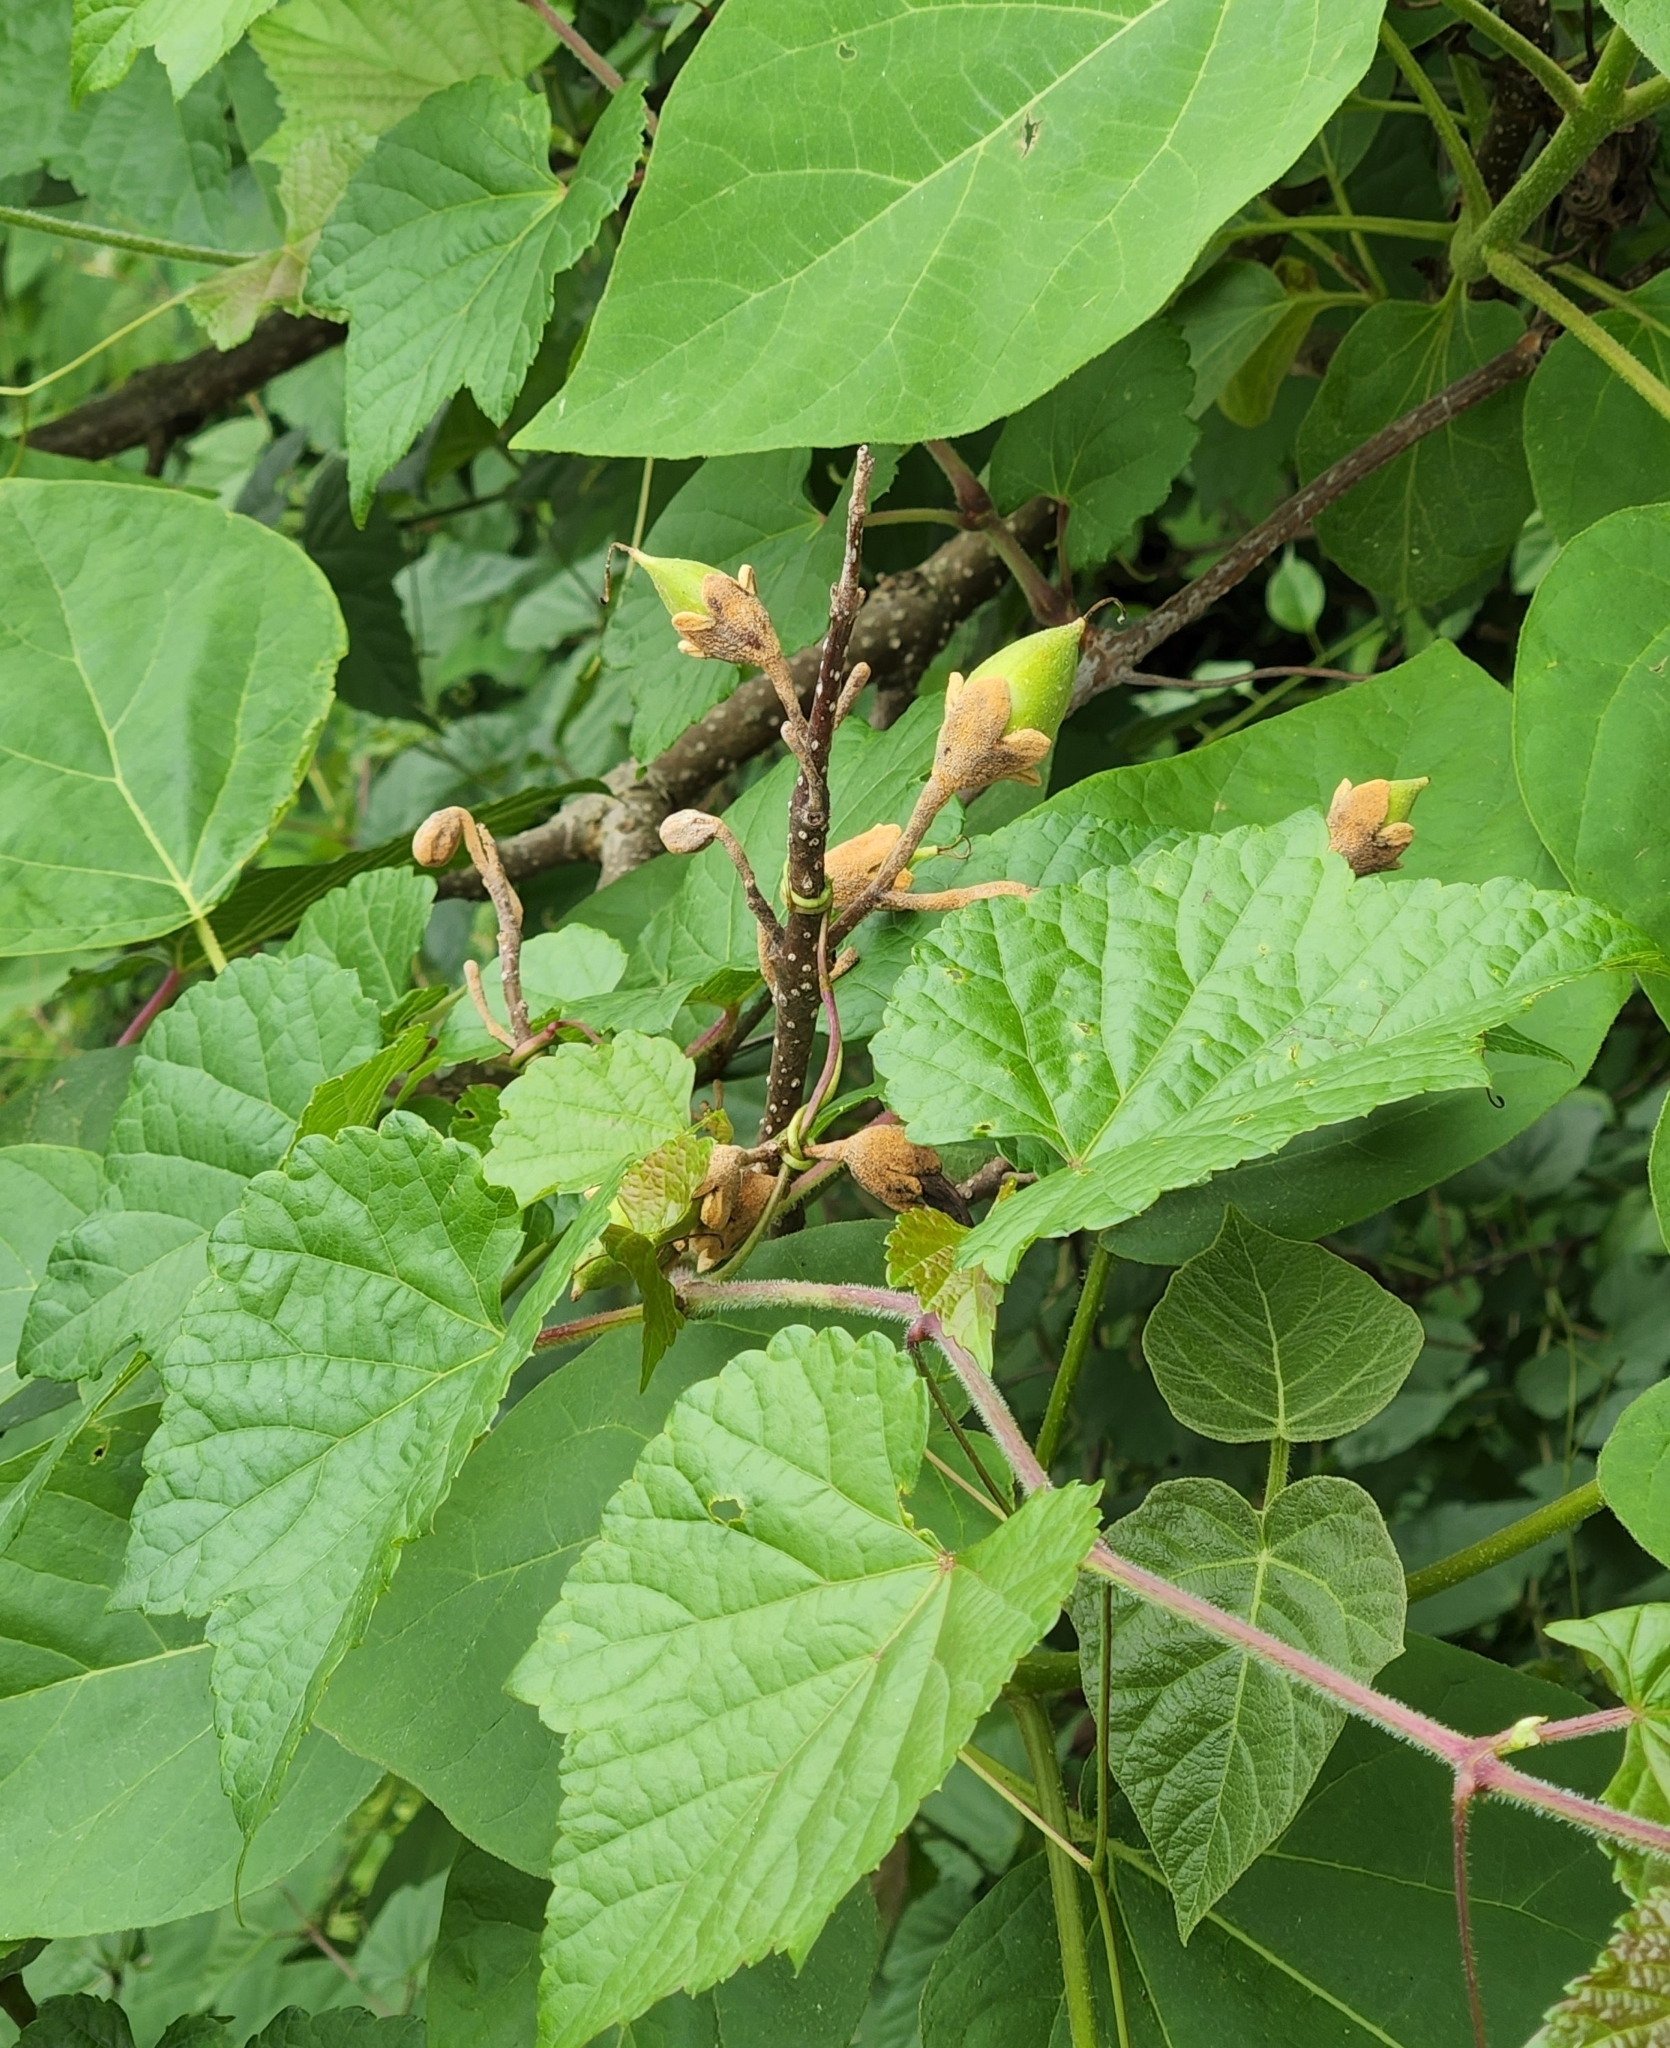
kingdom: Plantae
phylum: Tracheophyta
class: Magnoliopsida
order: Lamiales
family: Paulowniaceae
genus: Paulownia
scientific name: Paulownia tomentosa
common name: Foxglove-tree
